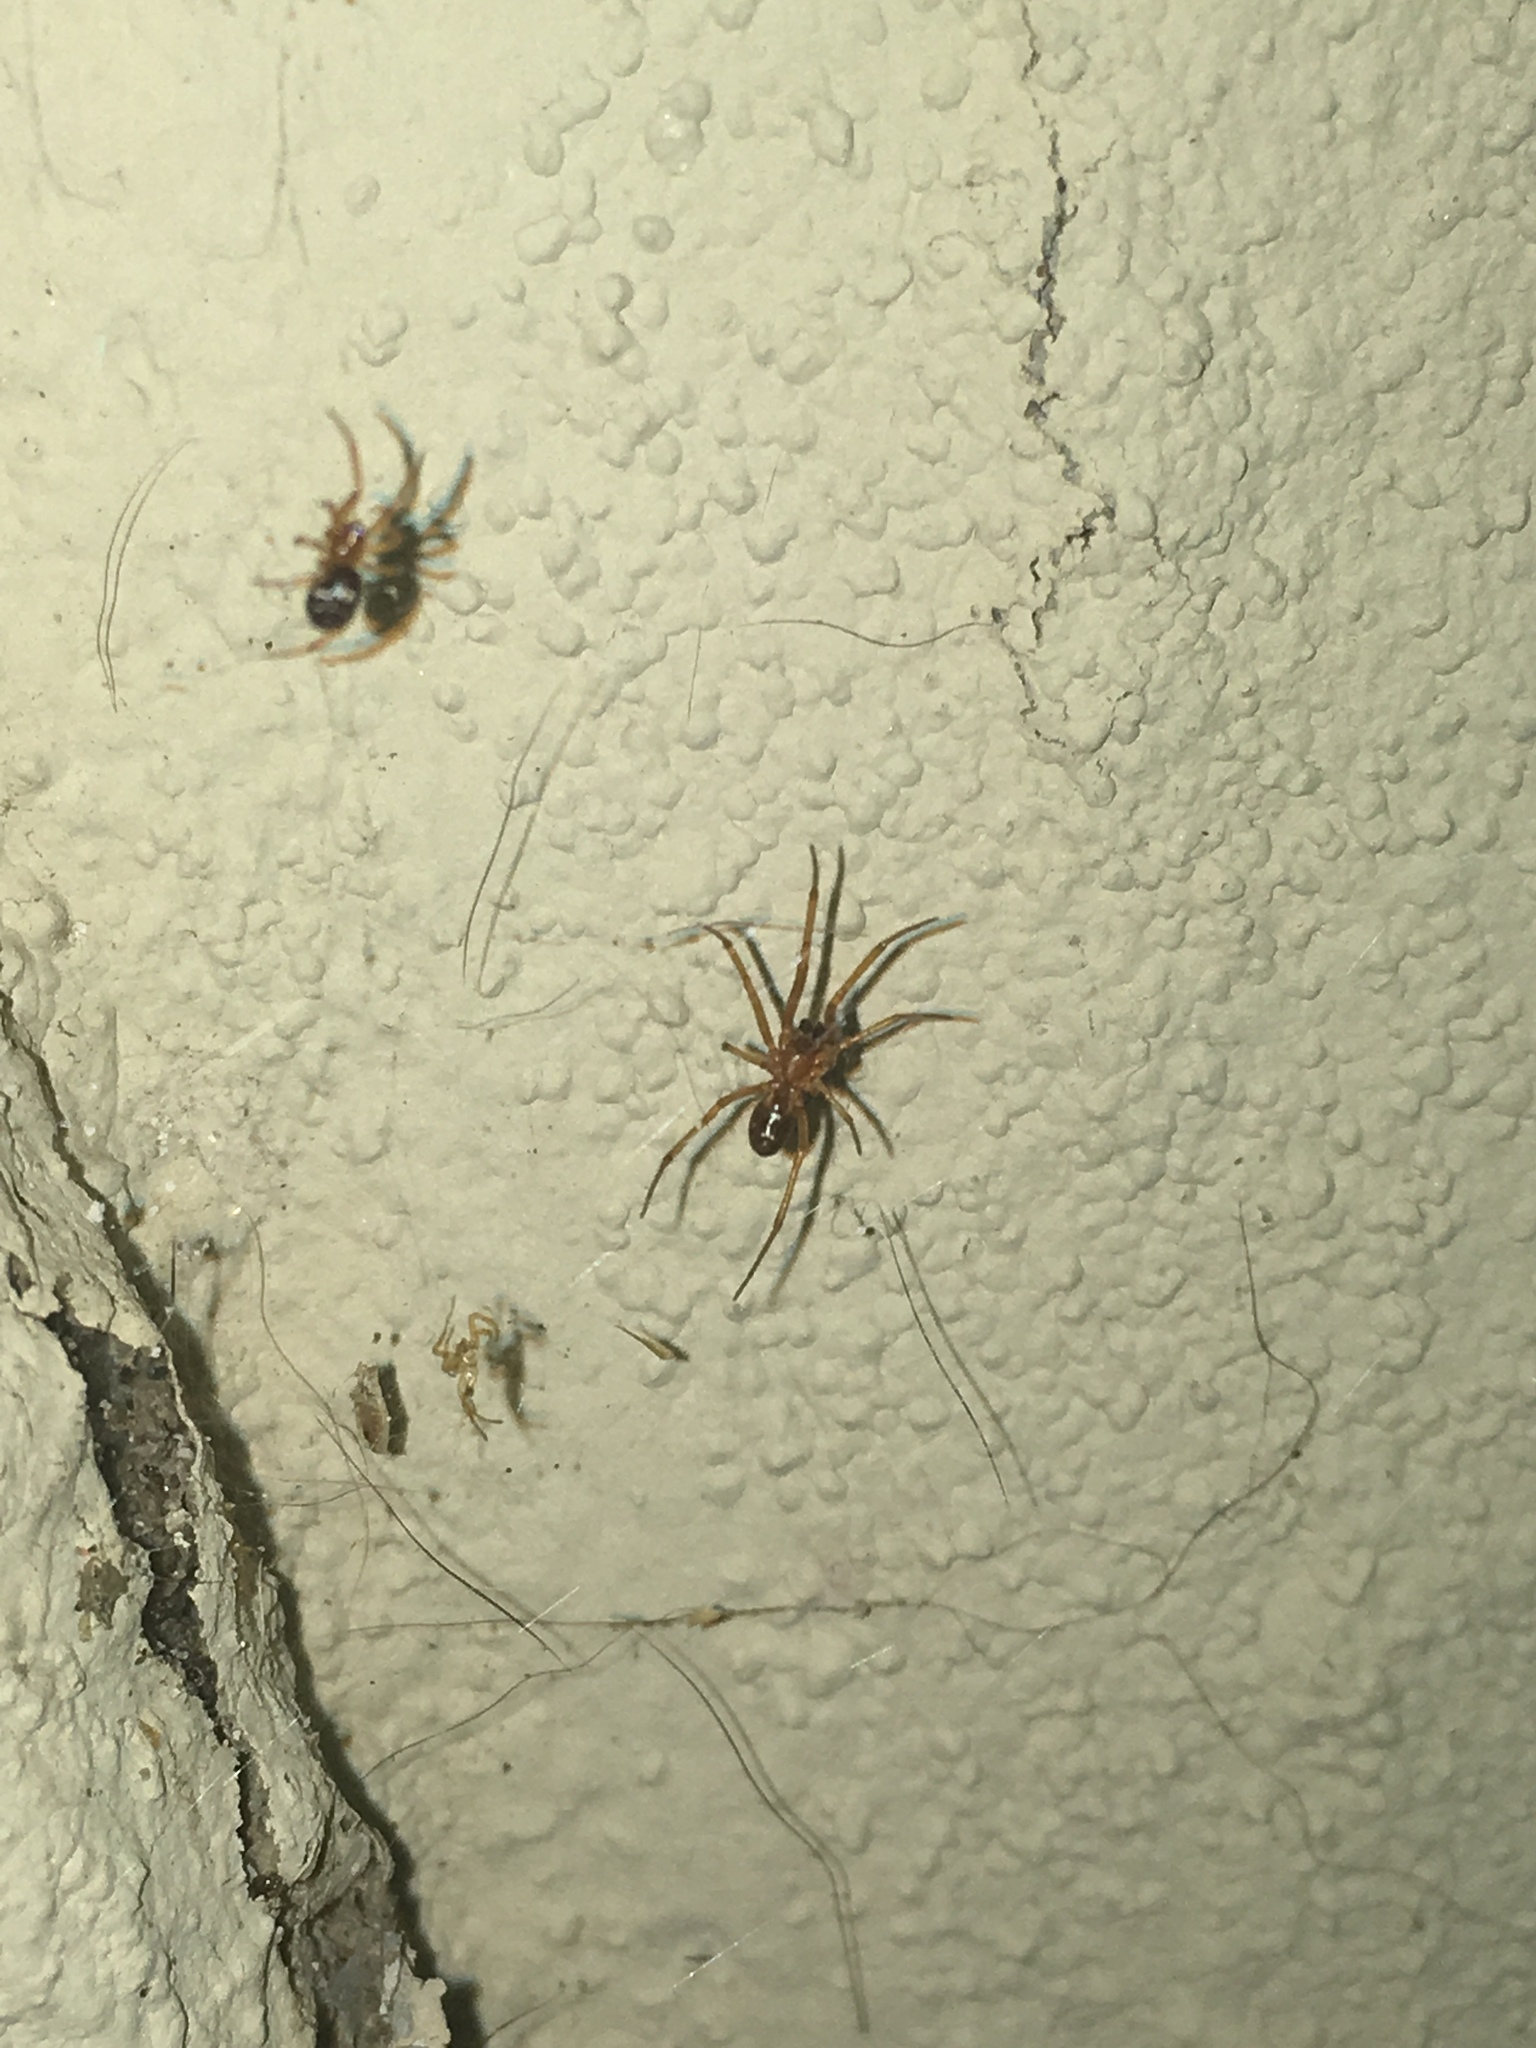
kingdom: Animalia
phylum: Arthropoda
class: Arachnida
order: Araneae
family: Theridiidae
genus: Steatoda
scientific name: Steatoda grossa
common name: False black widow
